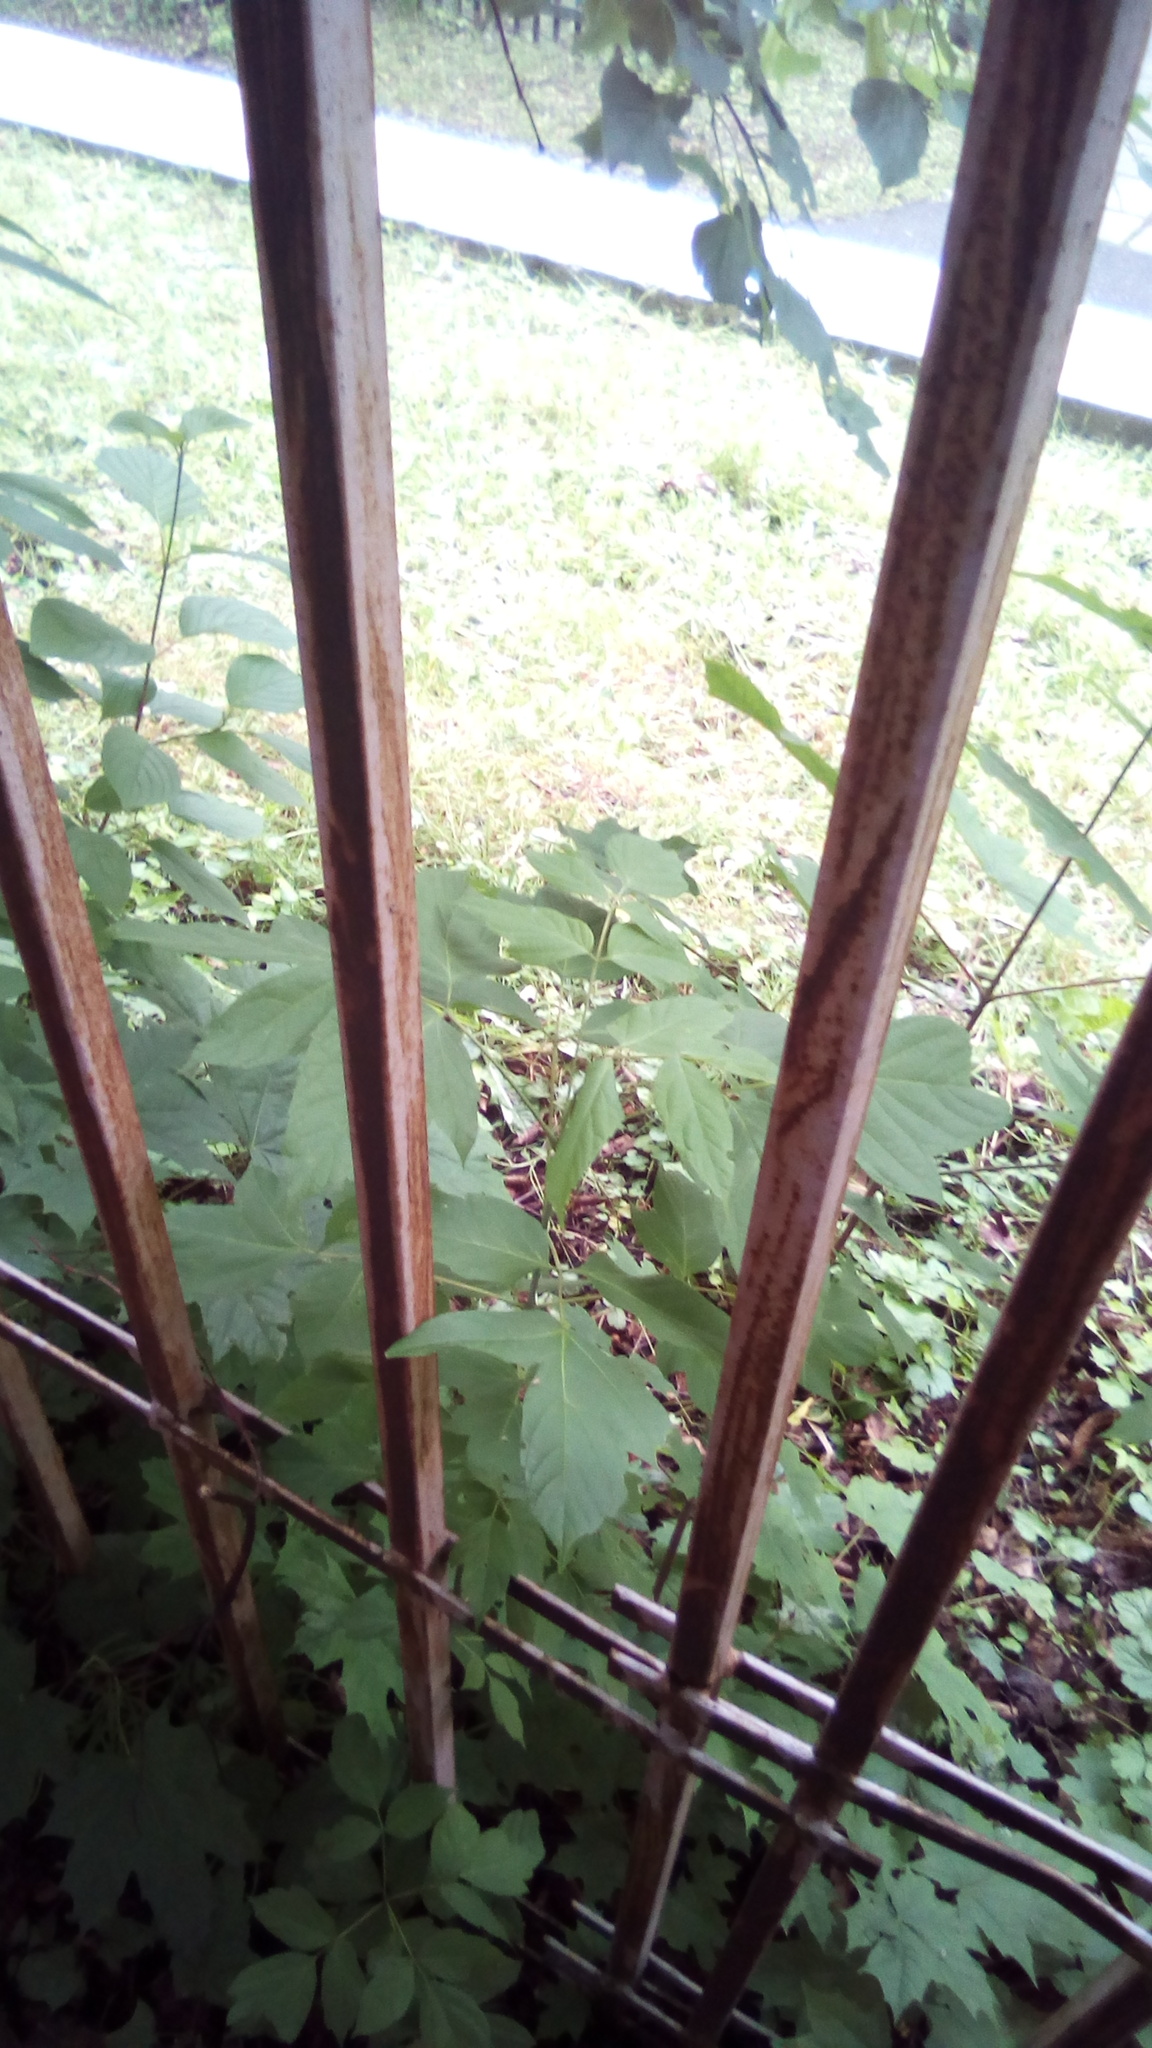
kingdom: Plantae
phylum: Tracheophyta
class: Magnoliopsida
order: Sapindales
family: Sapindaceae
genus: Acer
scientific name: Acer negundo
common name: Ashleaf maple
